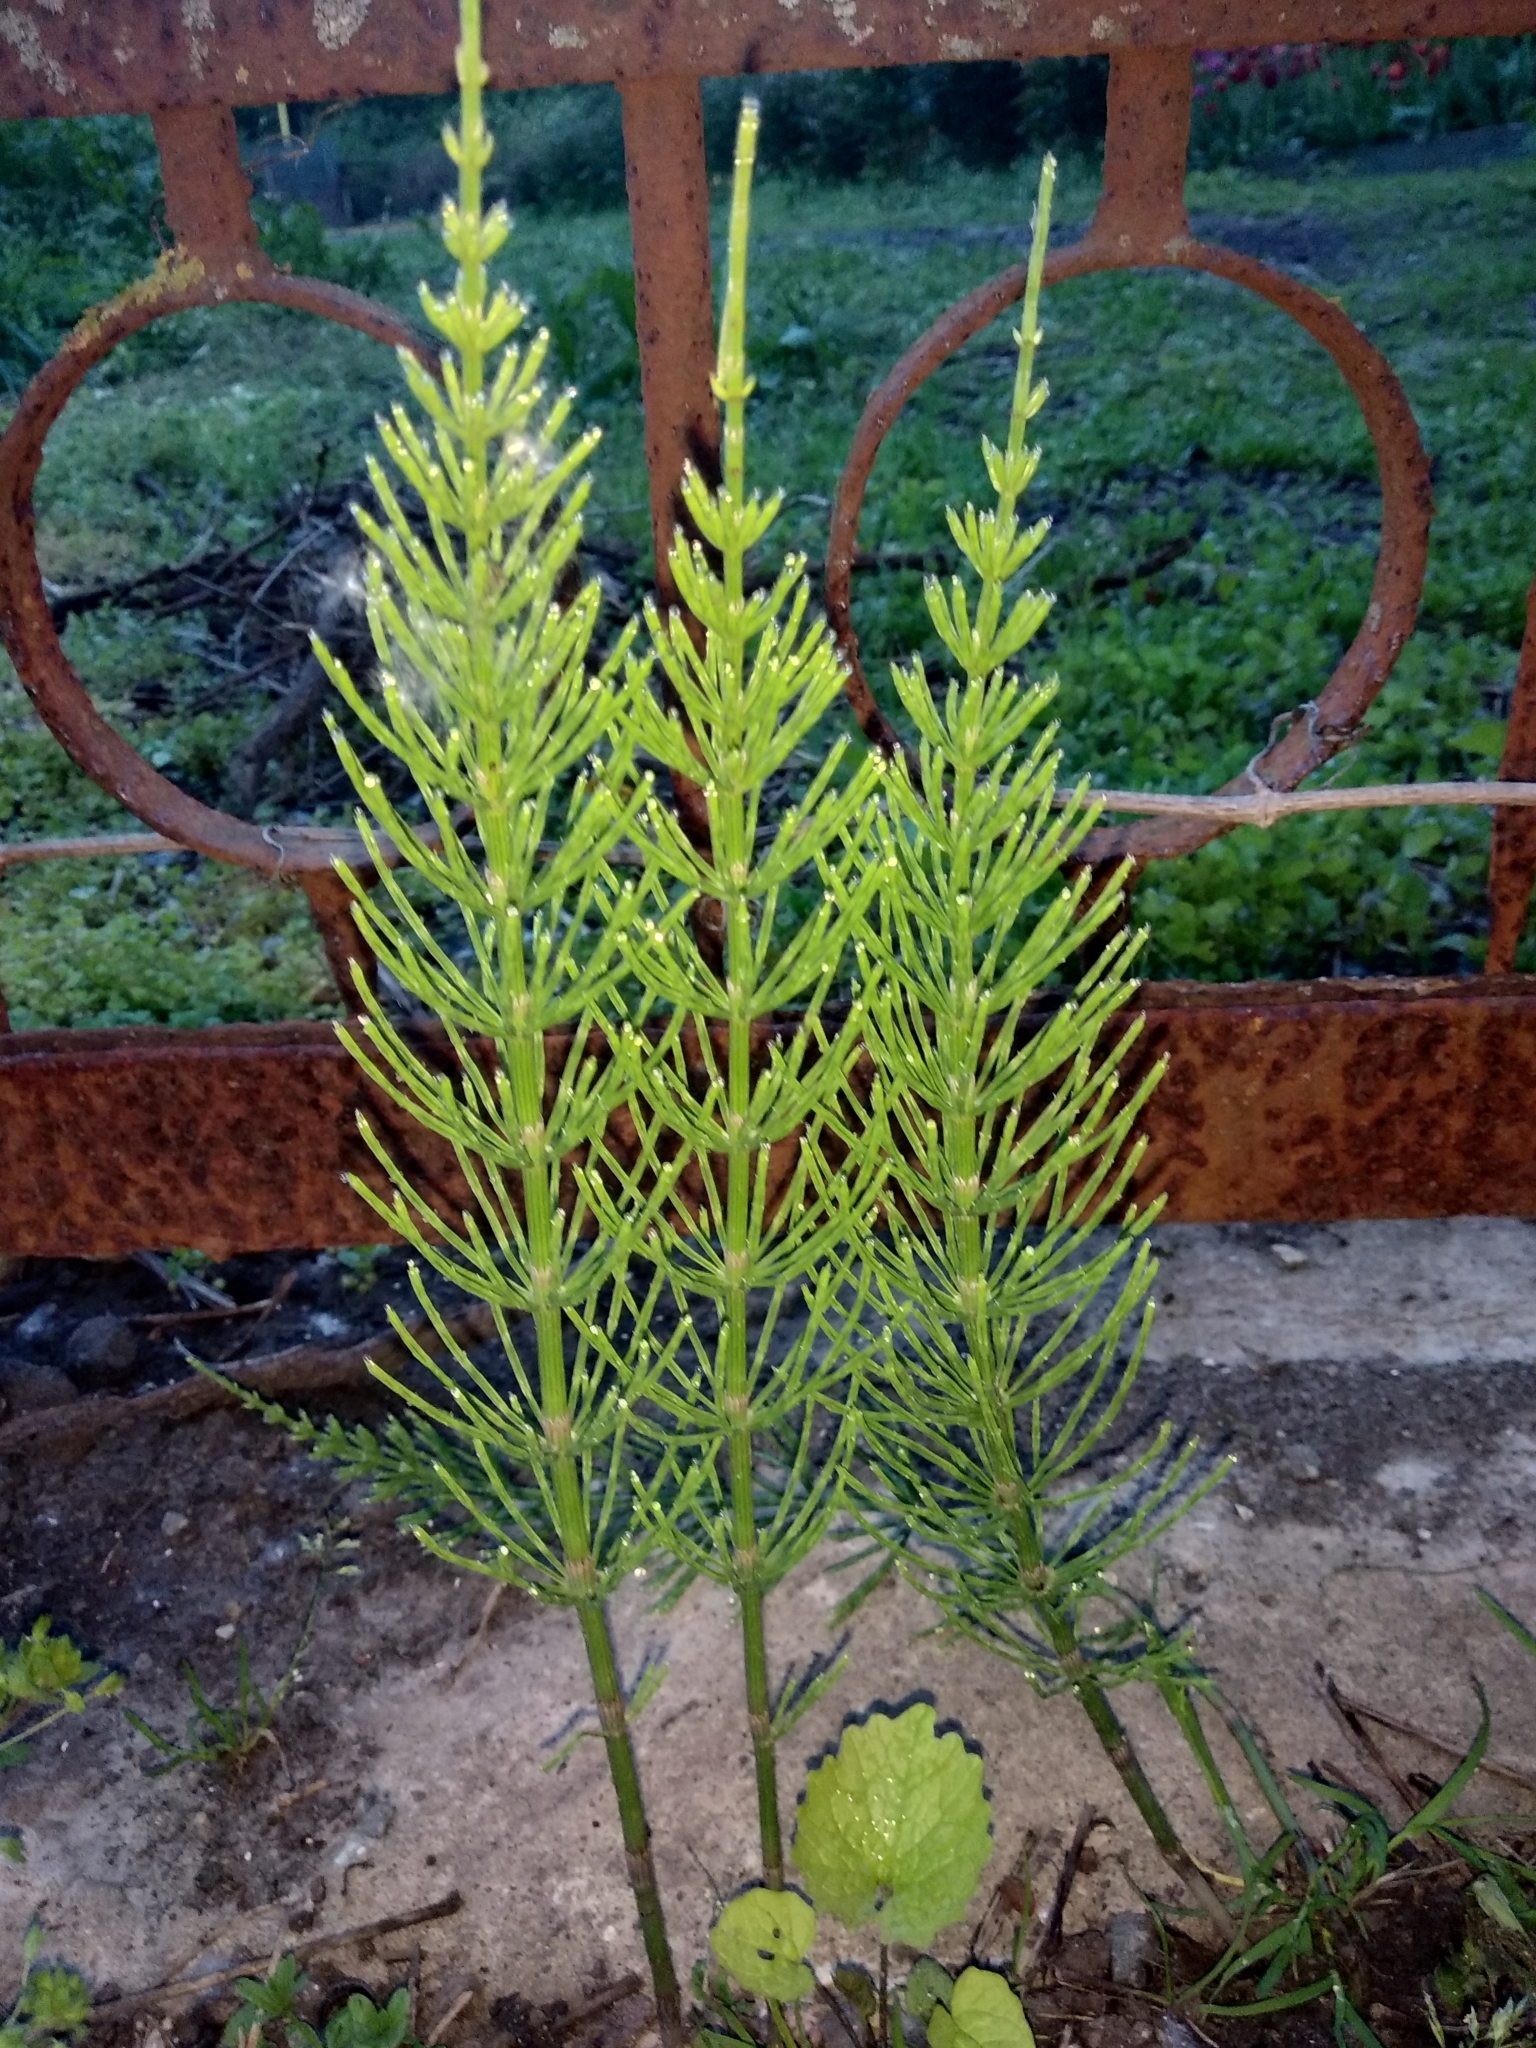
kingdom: Plantae
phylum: Tracheophyta
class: Polypodiopsida
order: Equisetales
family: Equisetaceae
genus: Equisetum
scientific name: Equisetum arvense
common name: Field horsetail
